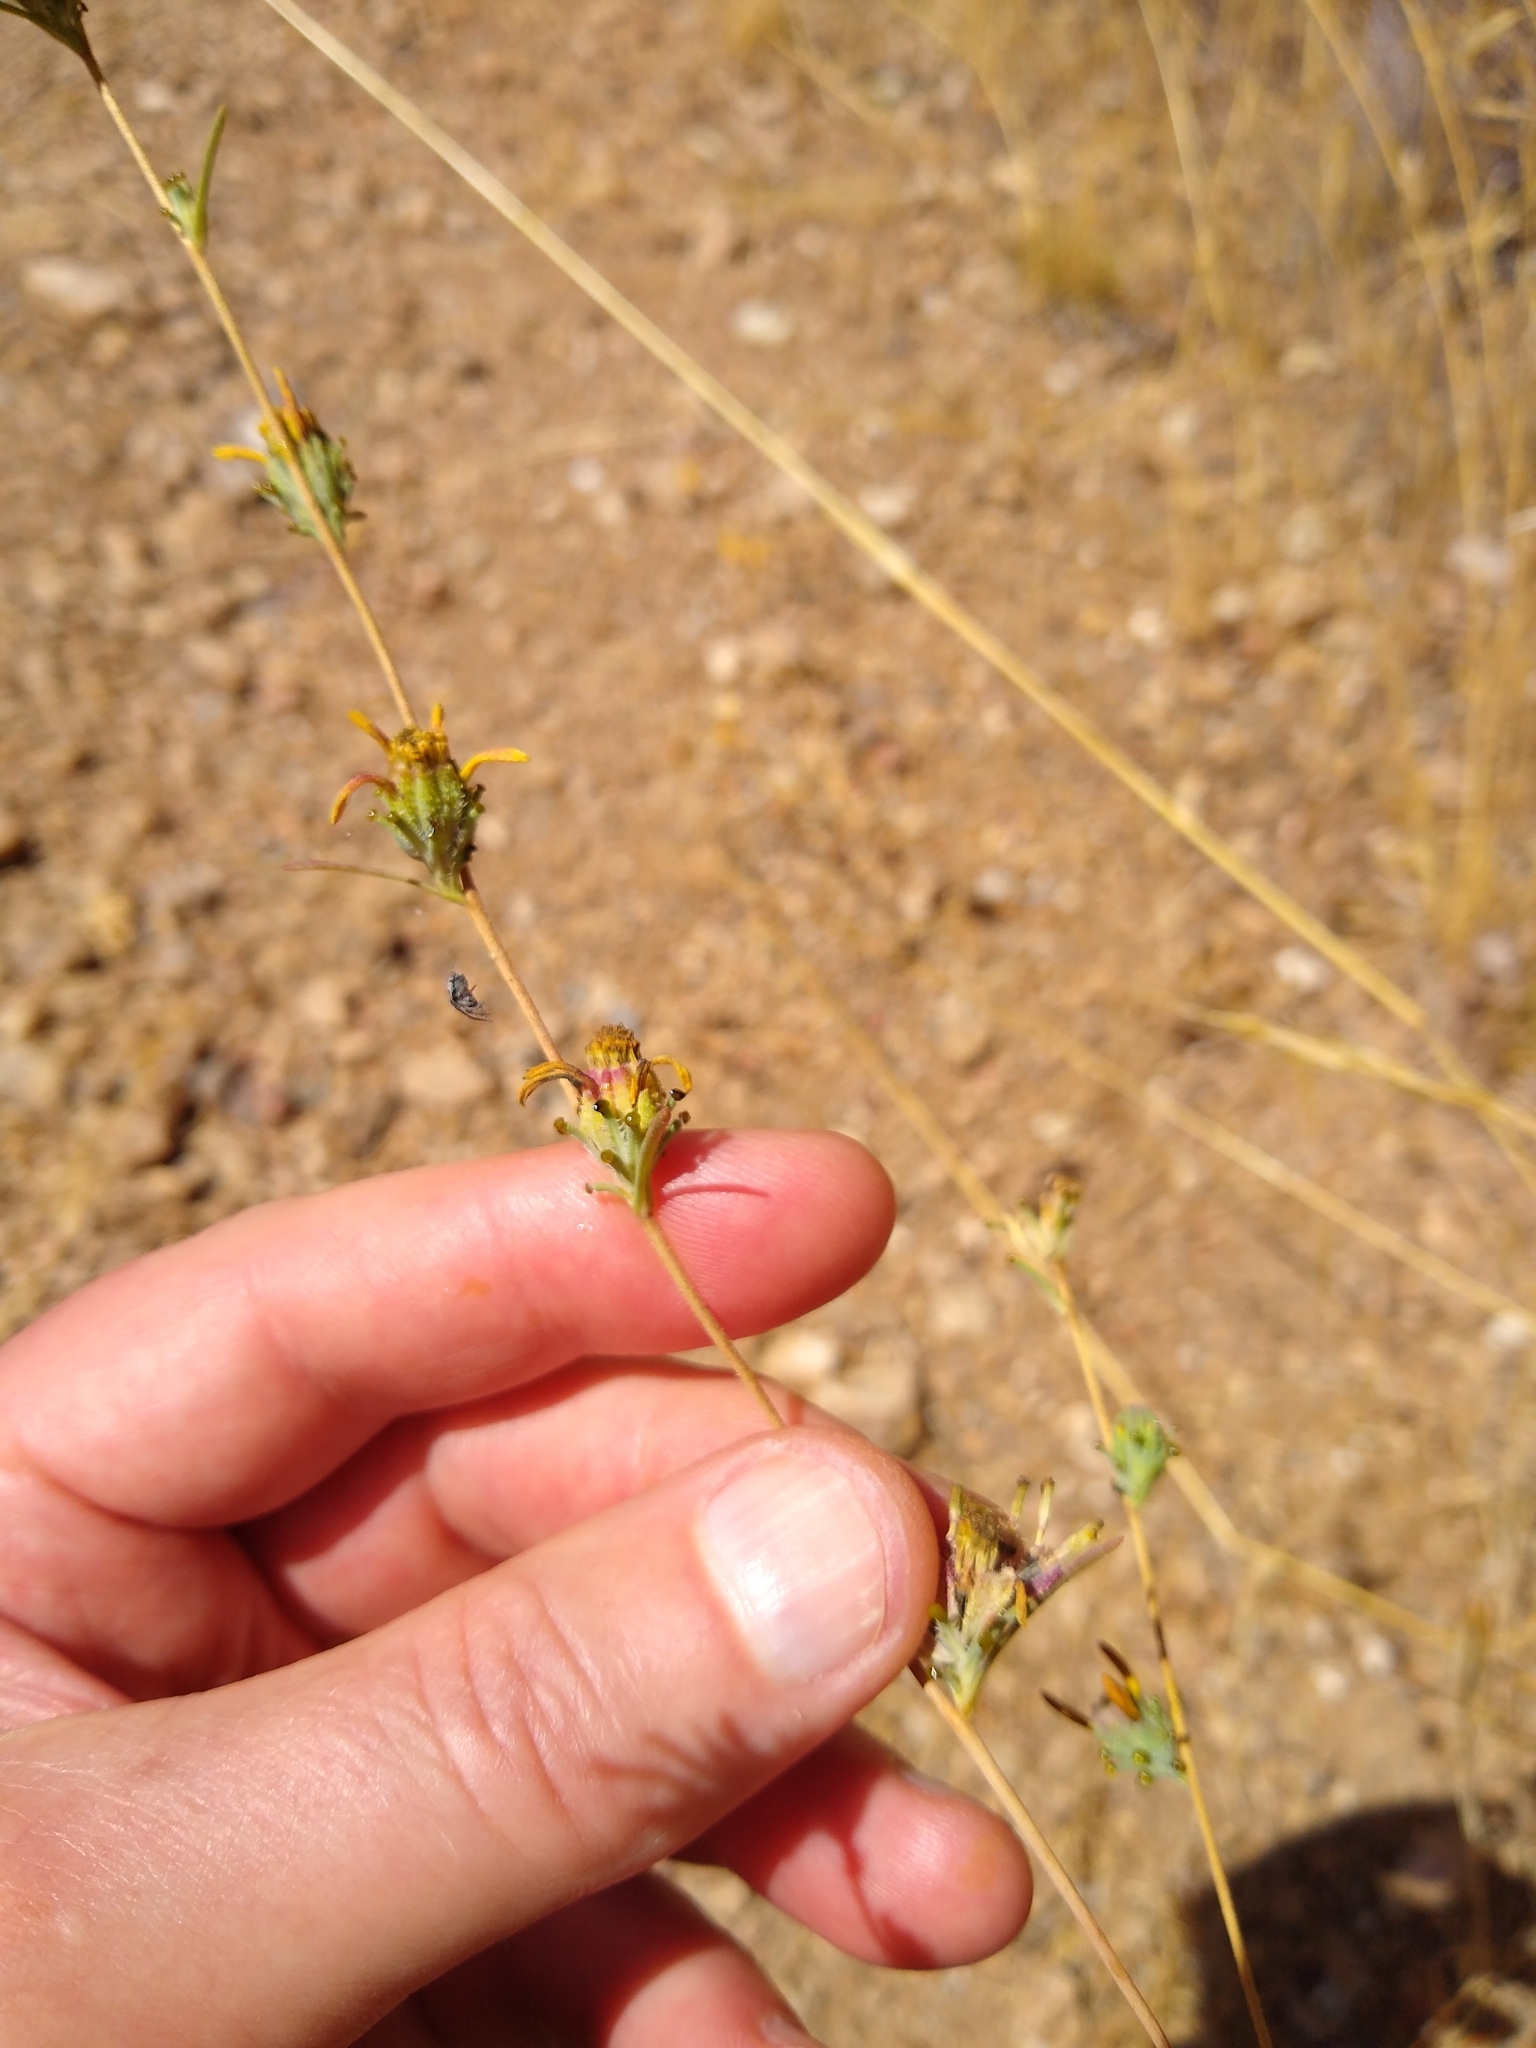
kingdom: Plantae
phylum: Tracheophyta
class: Magnoliopsida
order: Asterales
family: Asteraceae
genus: Calycadenia
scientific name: Calycadenia truncata
